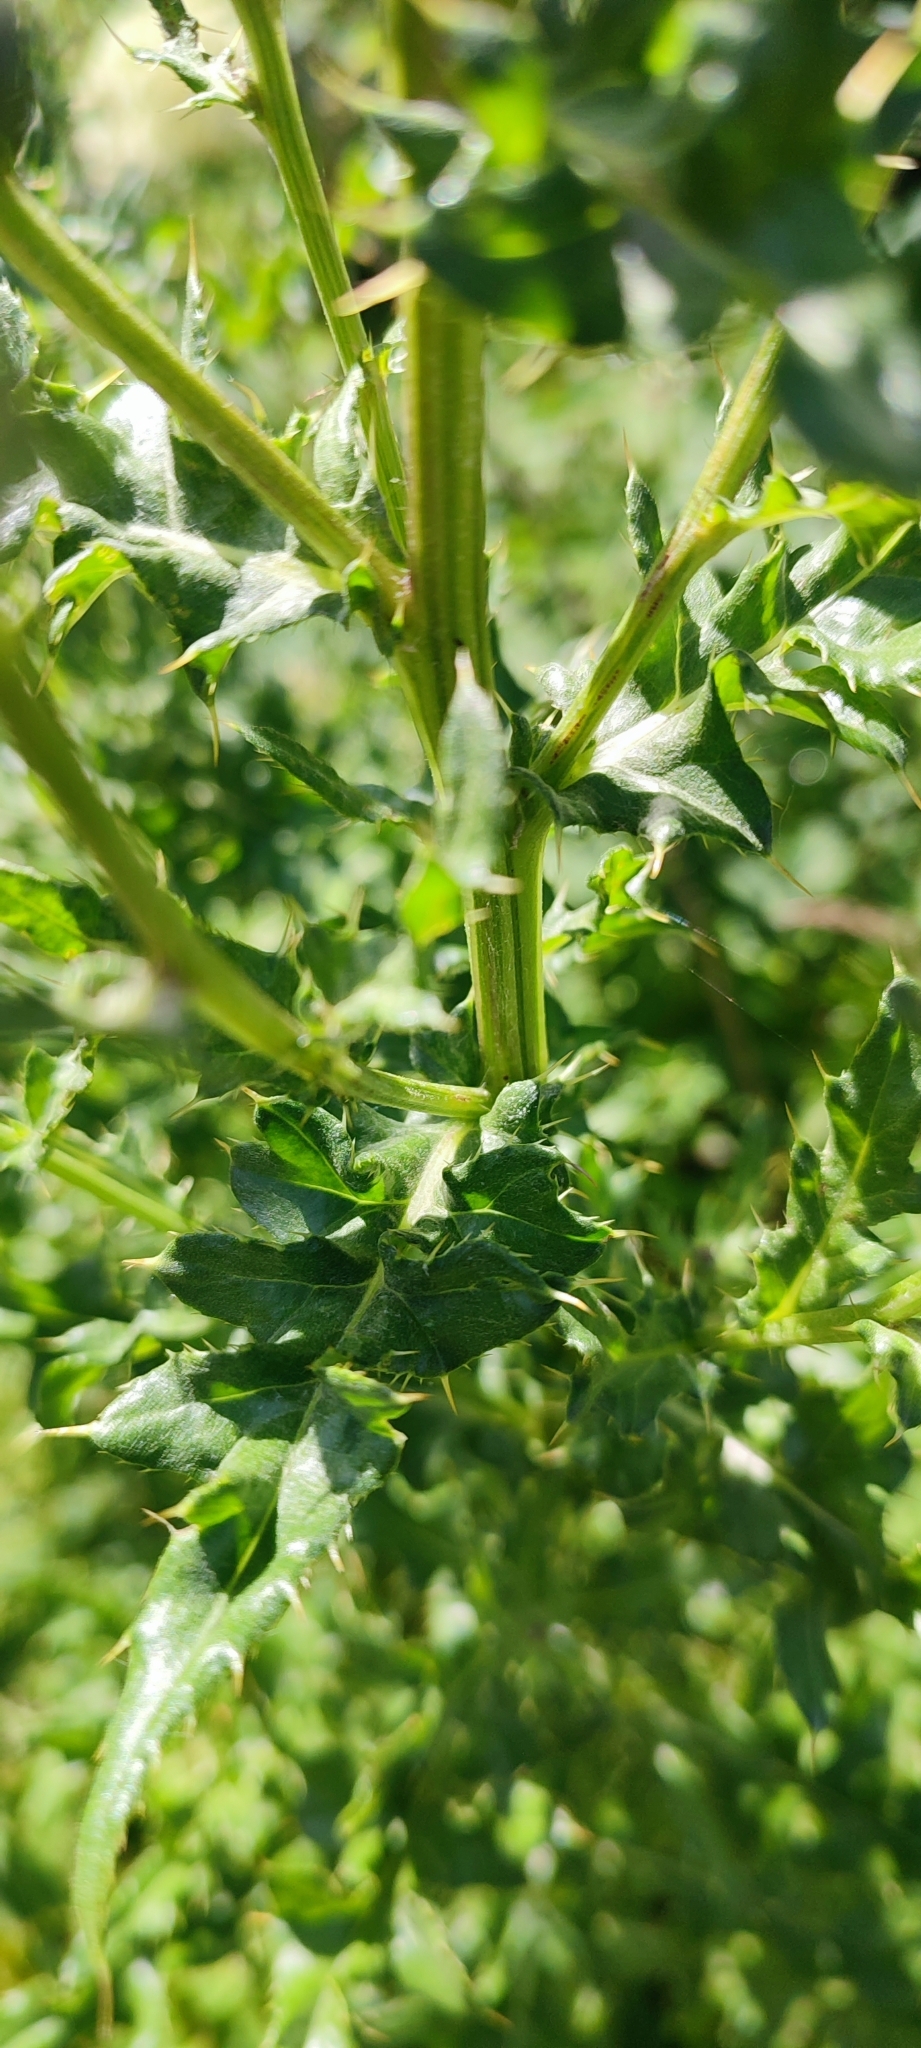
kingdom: Plantae
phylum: Tracheophyta
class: Magnoliopsida
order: Asterales
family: Asteraceae
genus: Cirsium
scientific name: Cirsium arvense
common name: Creeping thistle
